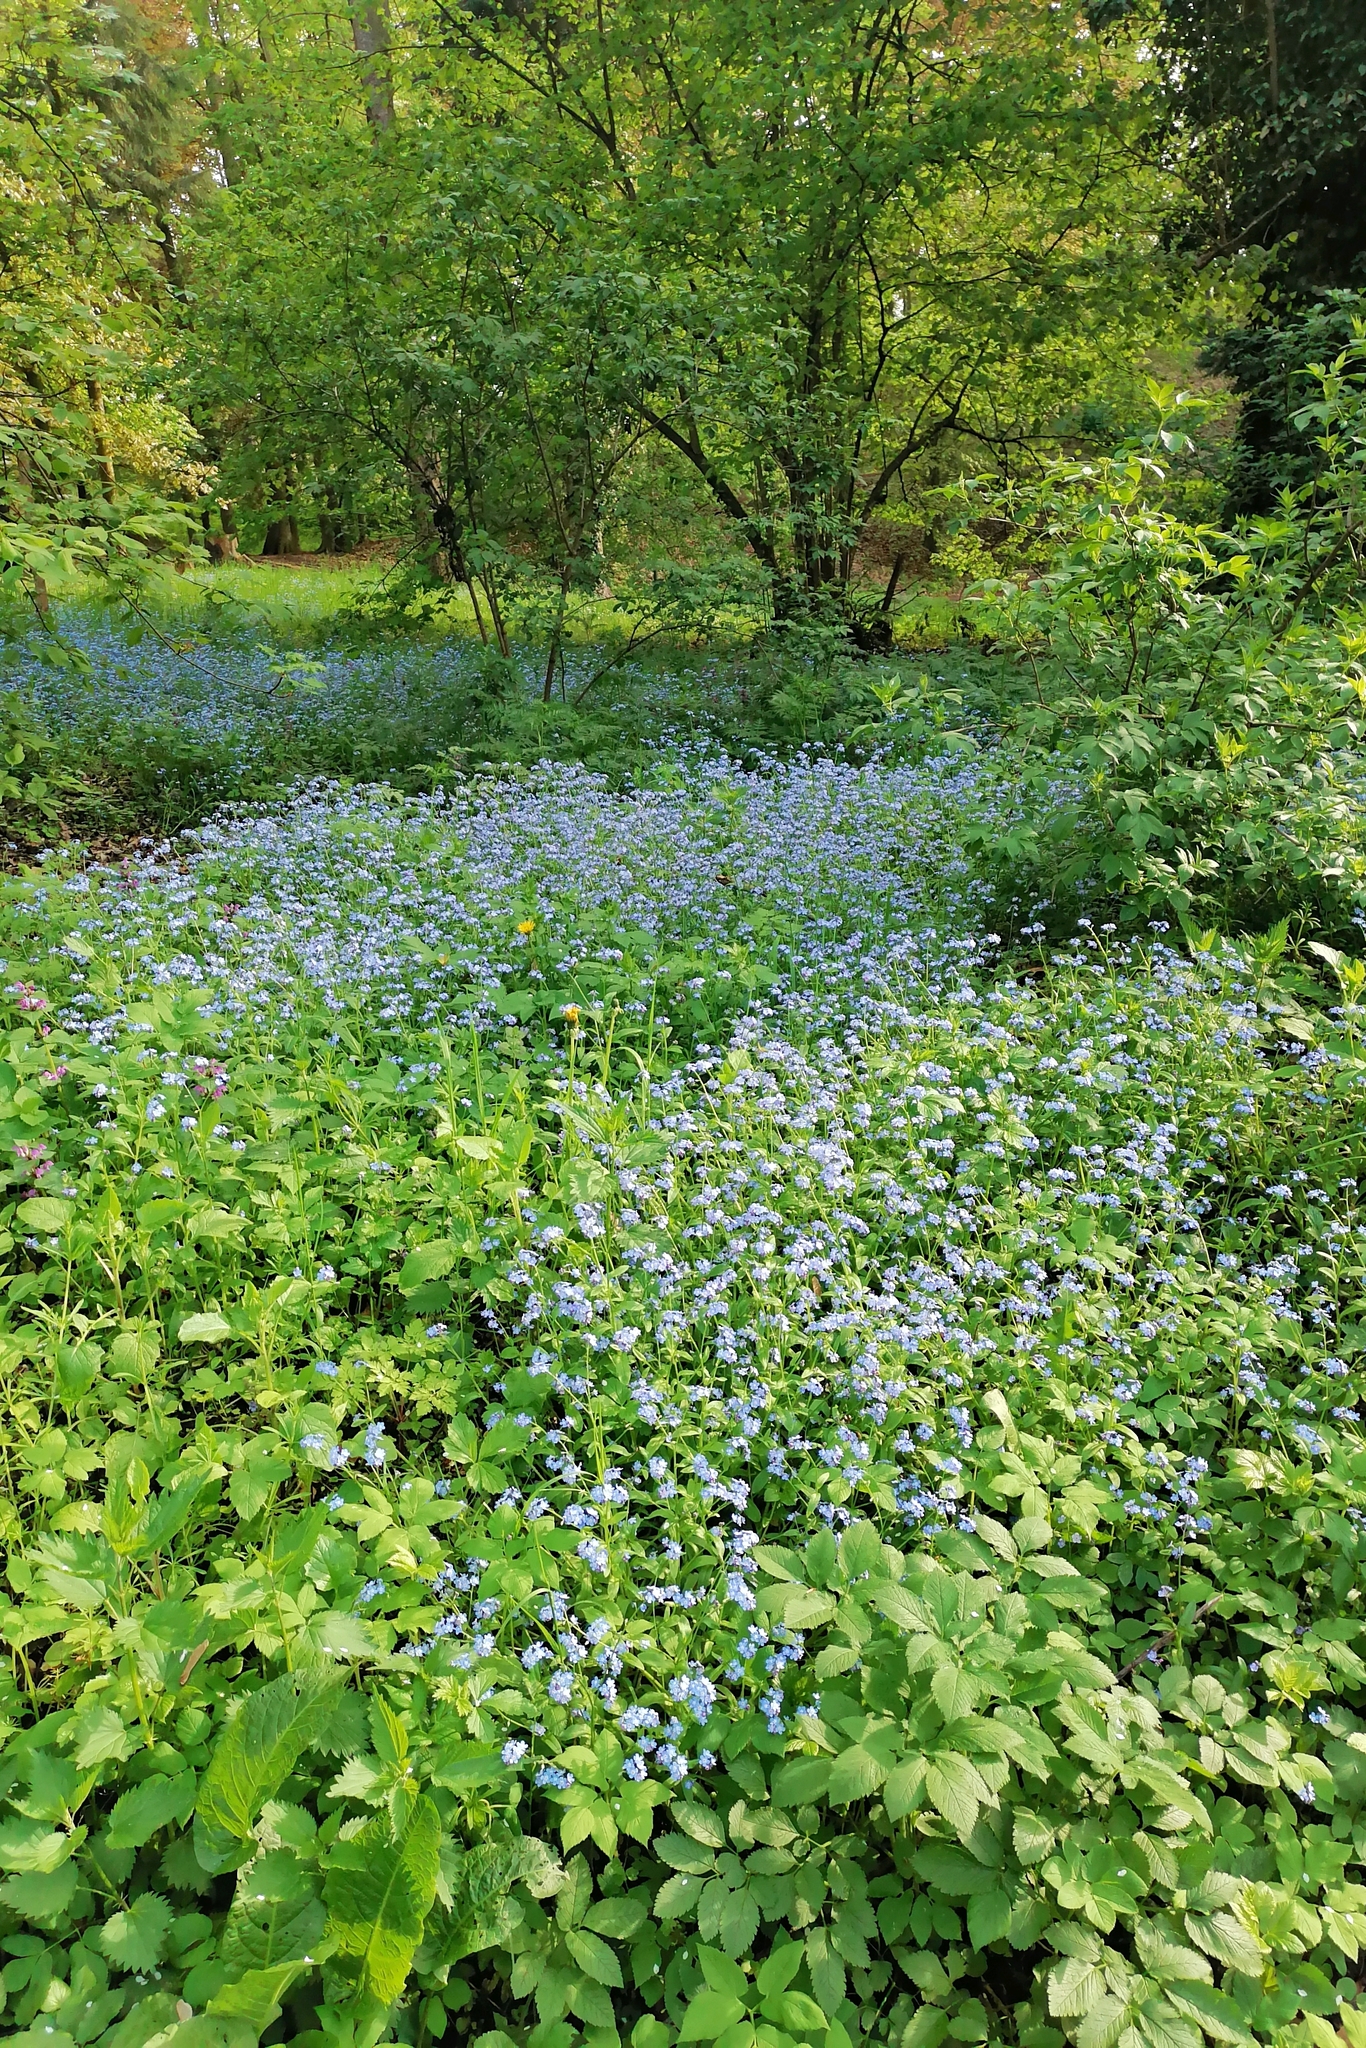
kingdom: Plantae
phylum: Tracheophyta
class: Magnoliopsida
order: Boraginales
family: Boraginaceae
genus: Myosotis
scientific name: Myosotis sylvatica
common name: Wood forget-me-not
